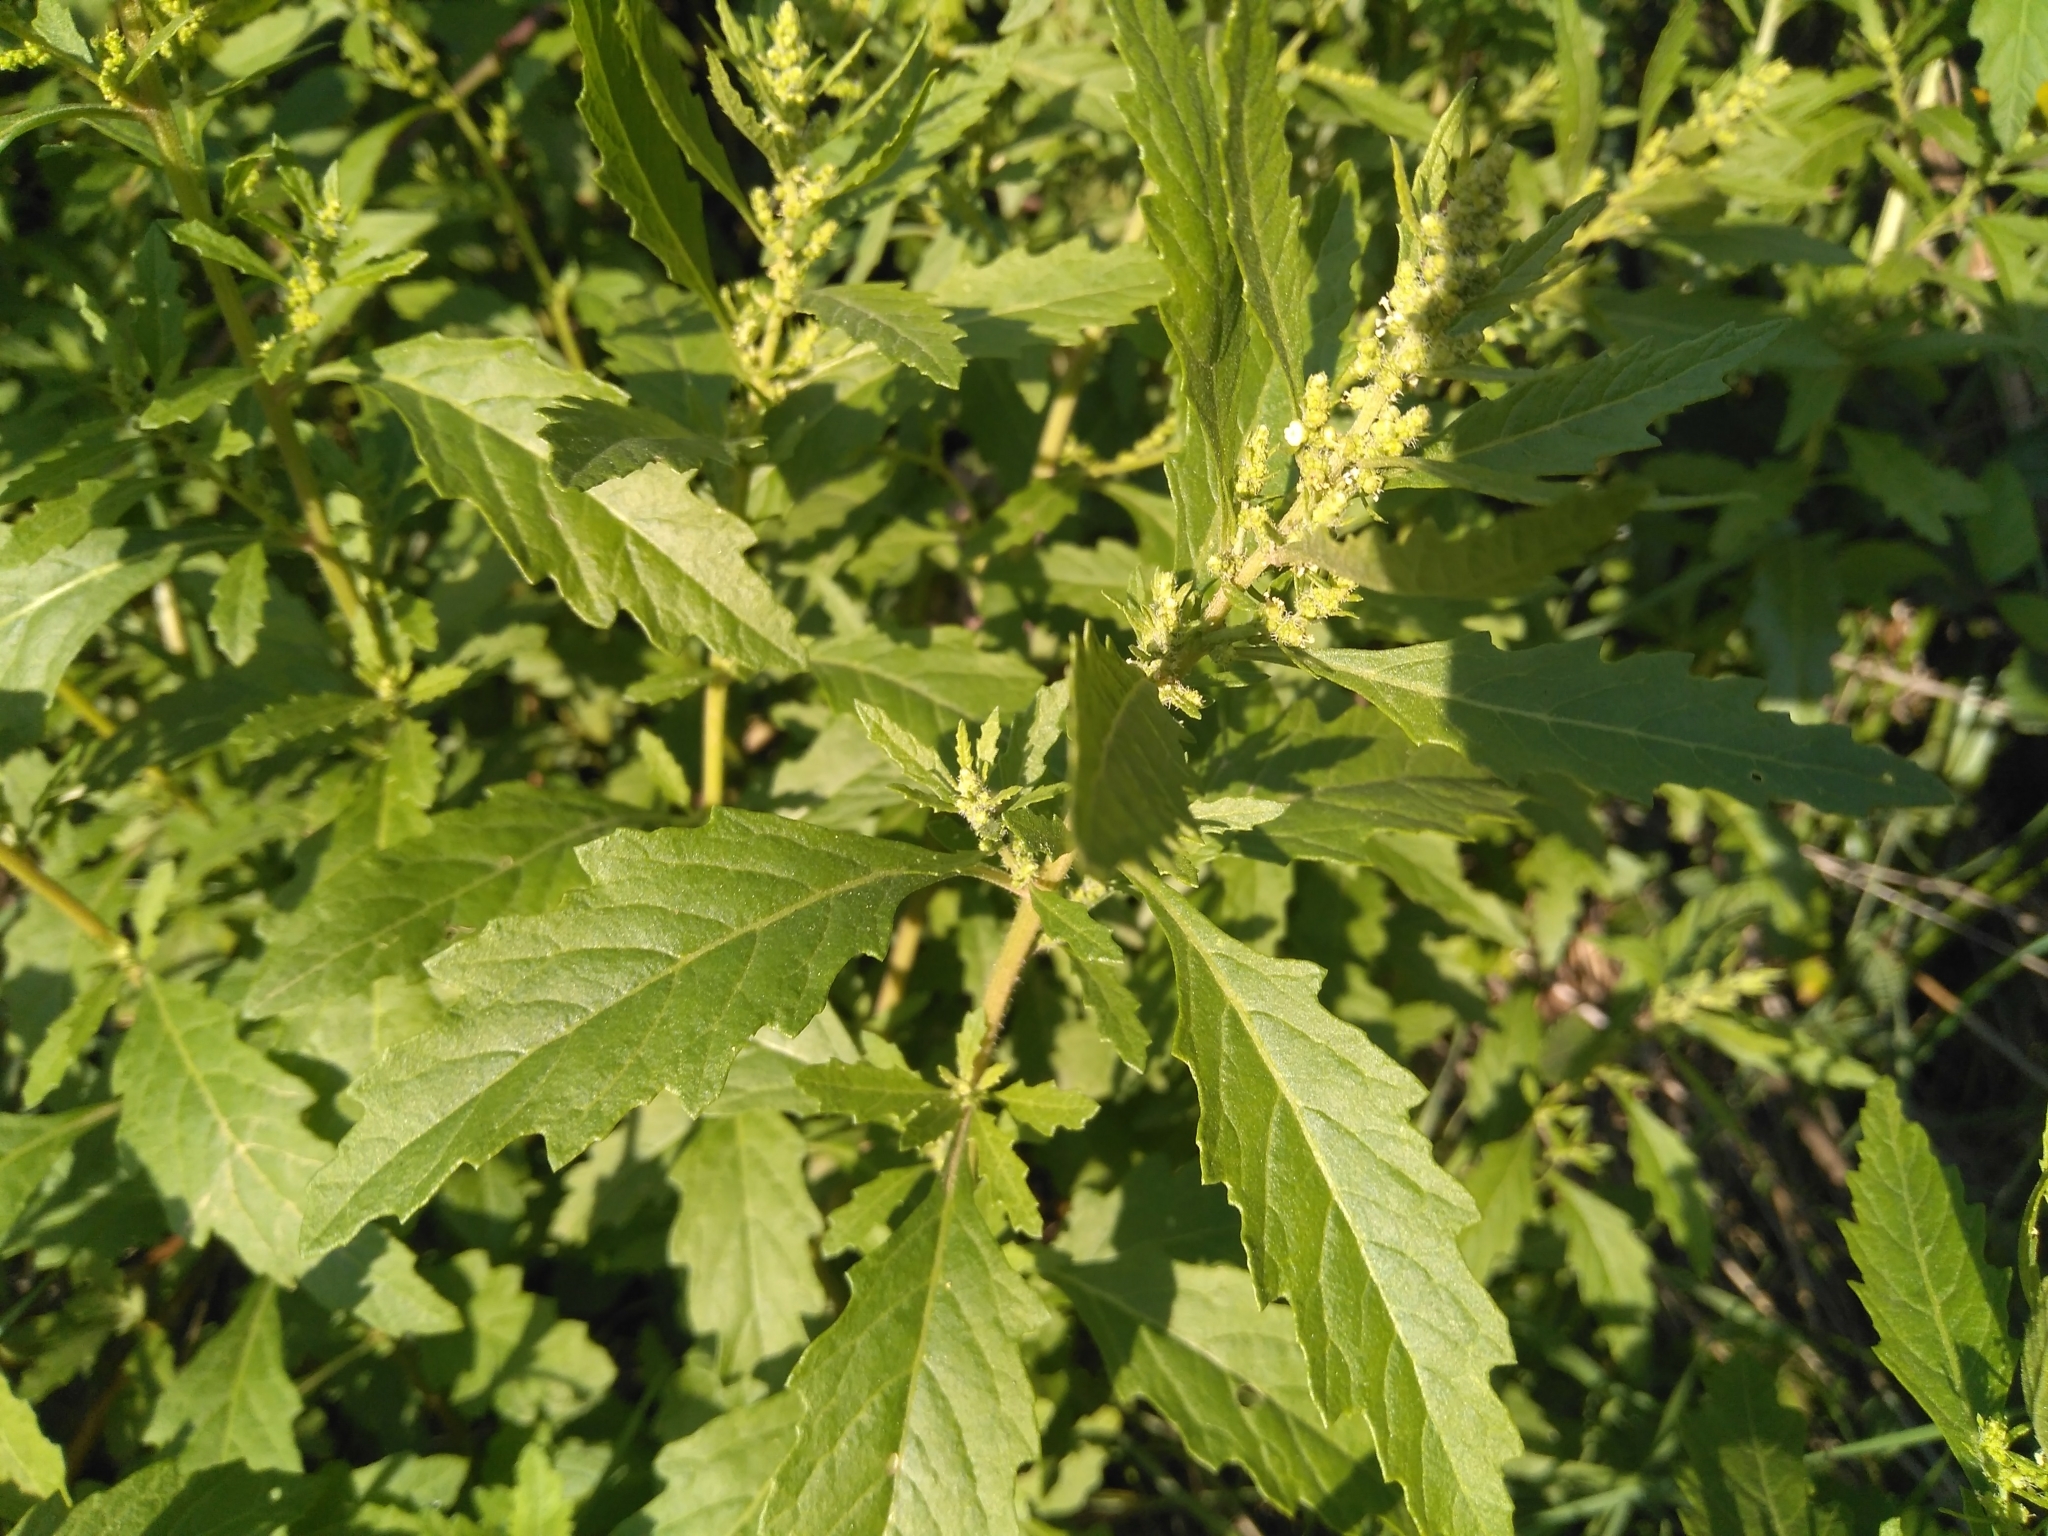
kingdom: Plantae
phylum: Tracheophyta
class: Magnoliopsida
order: Caryophyllales
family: Amaranthaceae
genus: Dysphania
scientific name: Dysphania ambrosioides
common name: Wormseed
